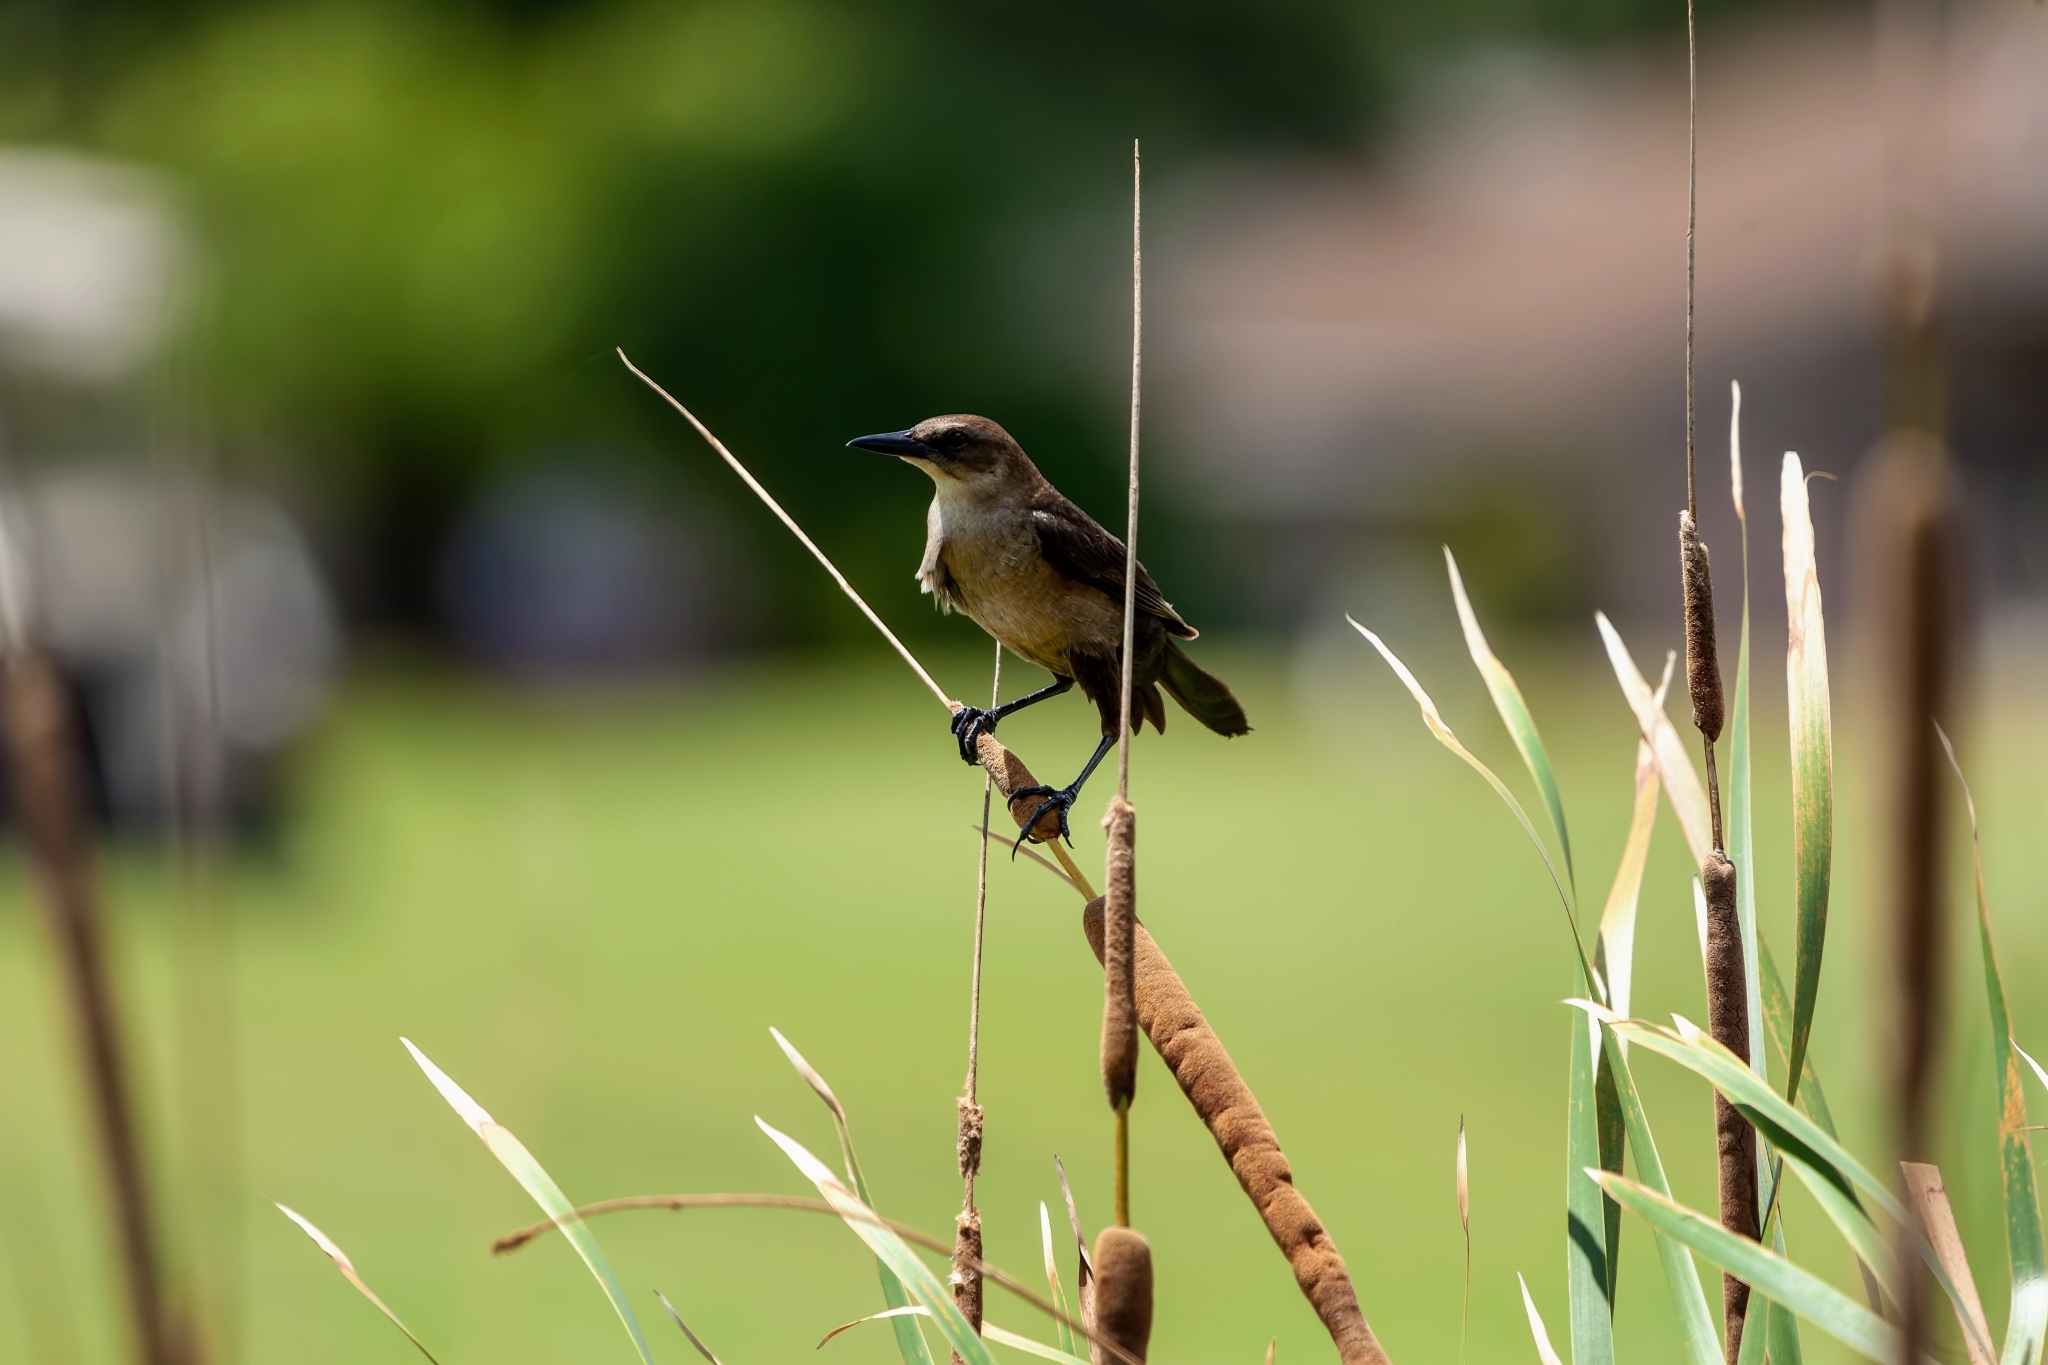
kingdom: Animalia
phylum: Chordata
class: Aves
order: Passeriformes
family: Icteridae
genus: Quiscalus
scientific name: Quiscalus major
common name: Boat-tailed grackle
